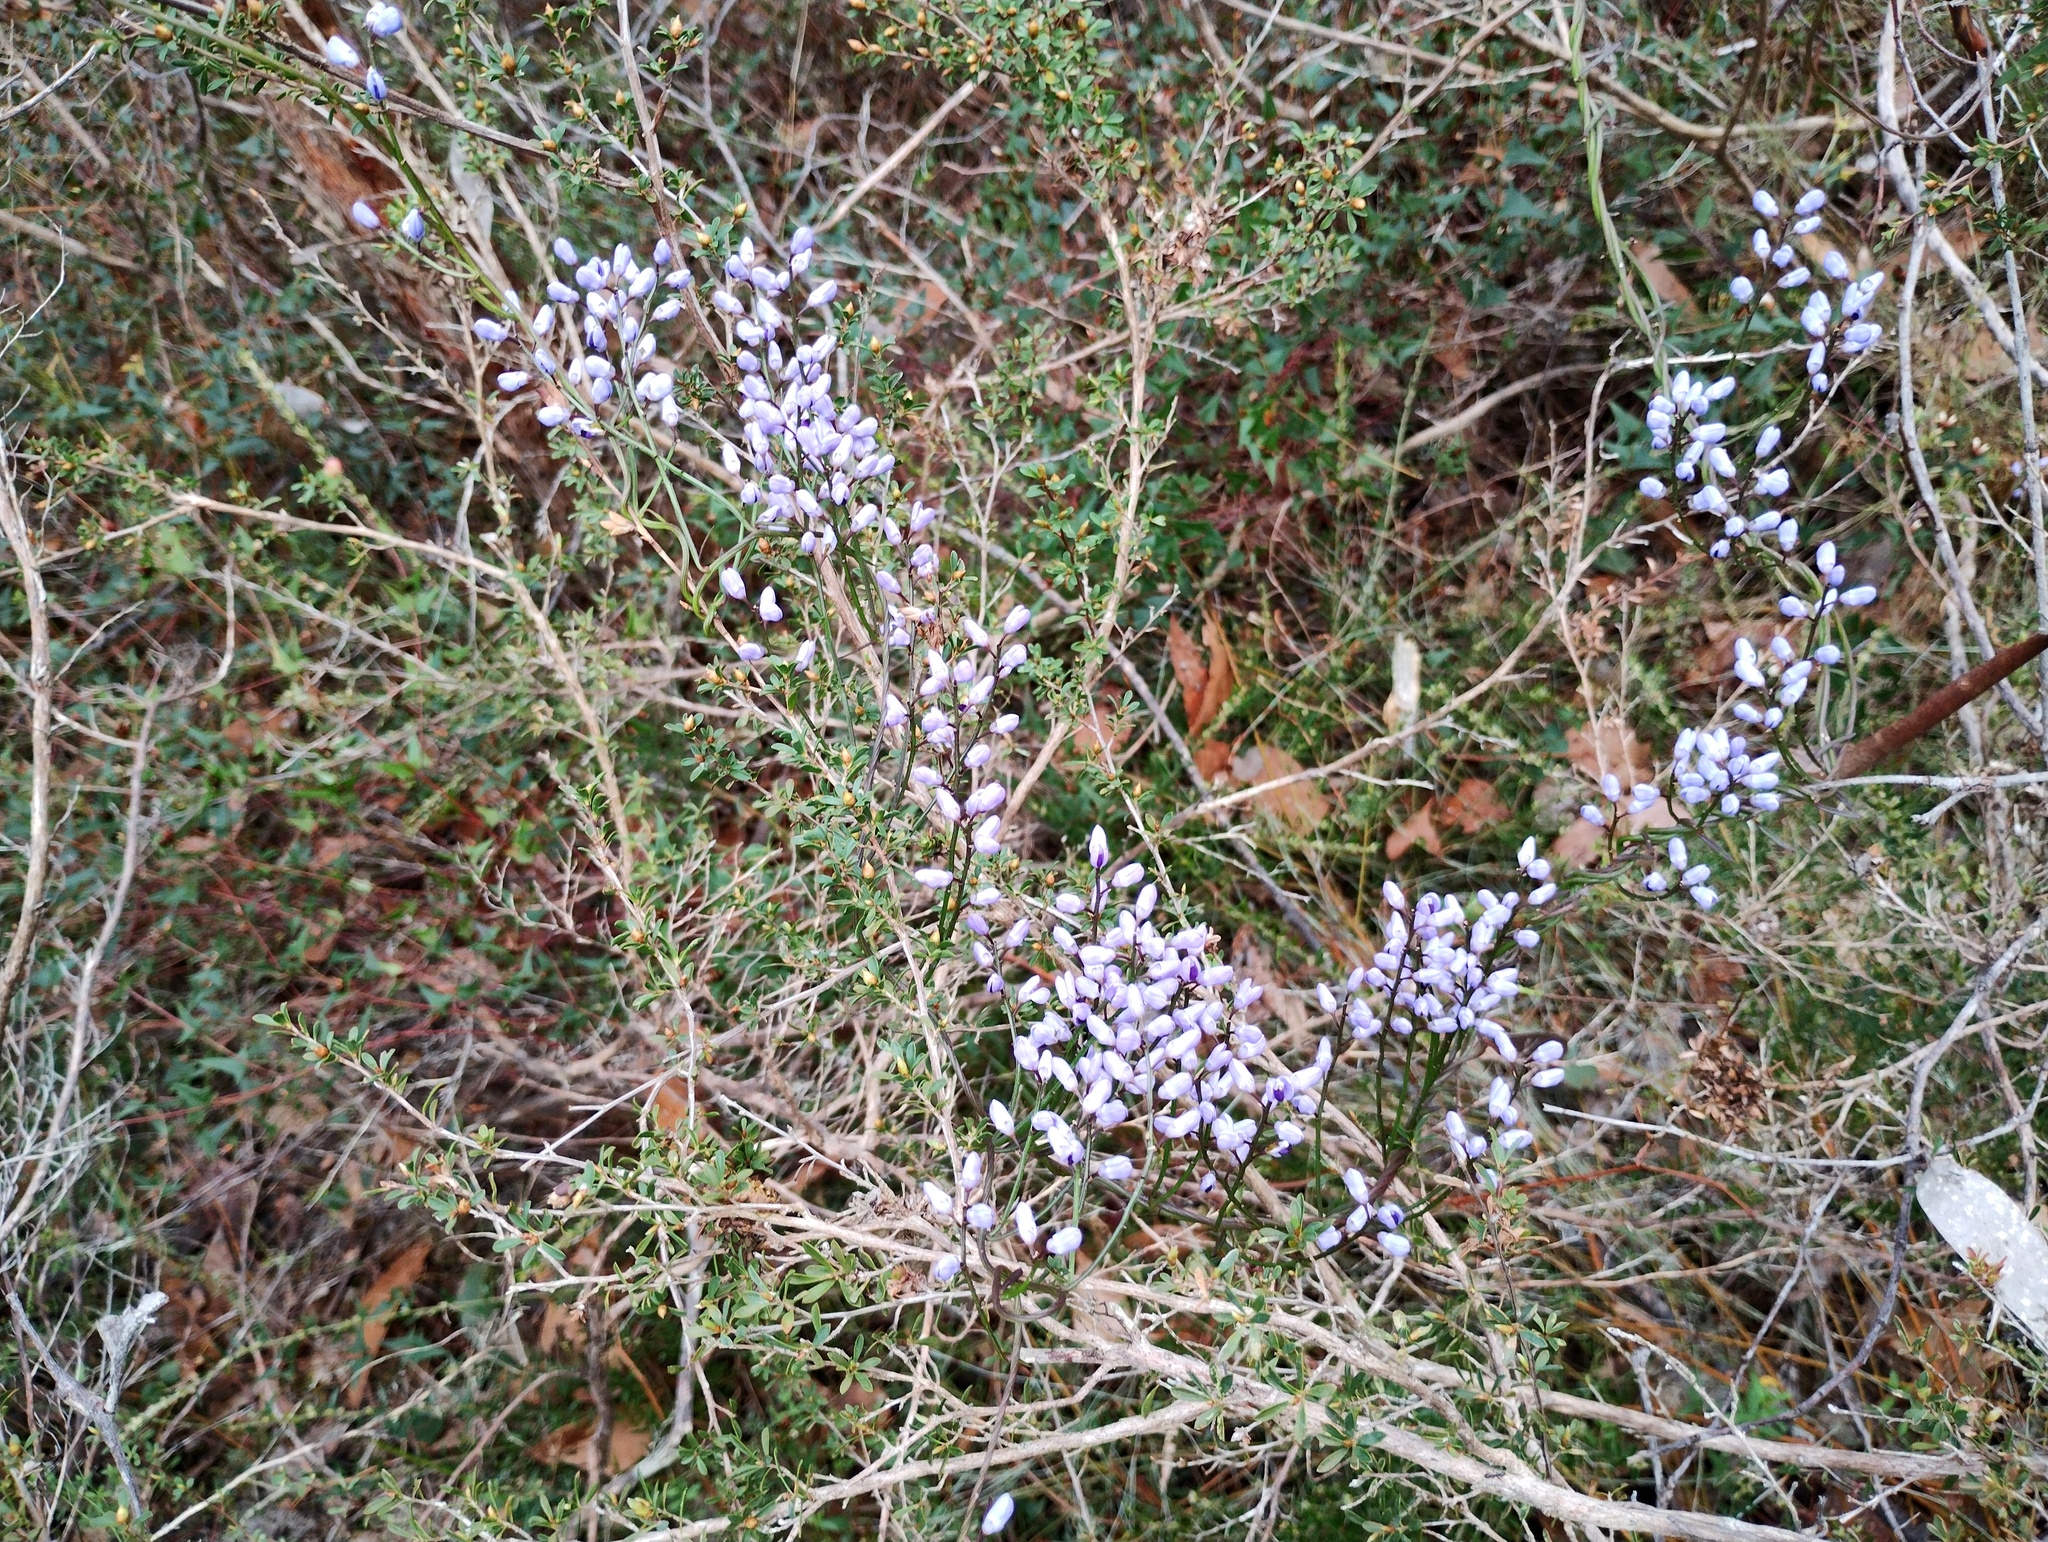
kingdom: Plantae
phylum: Tracheophyta
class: Magnoliopsida
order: Fabales
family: Polygalaceae
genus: Comesperma
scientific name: Comesperma volubile
